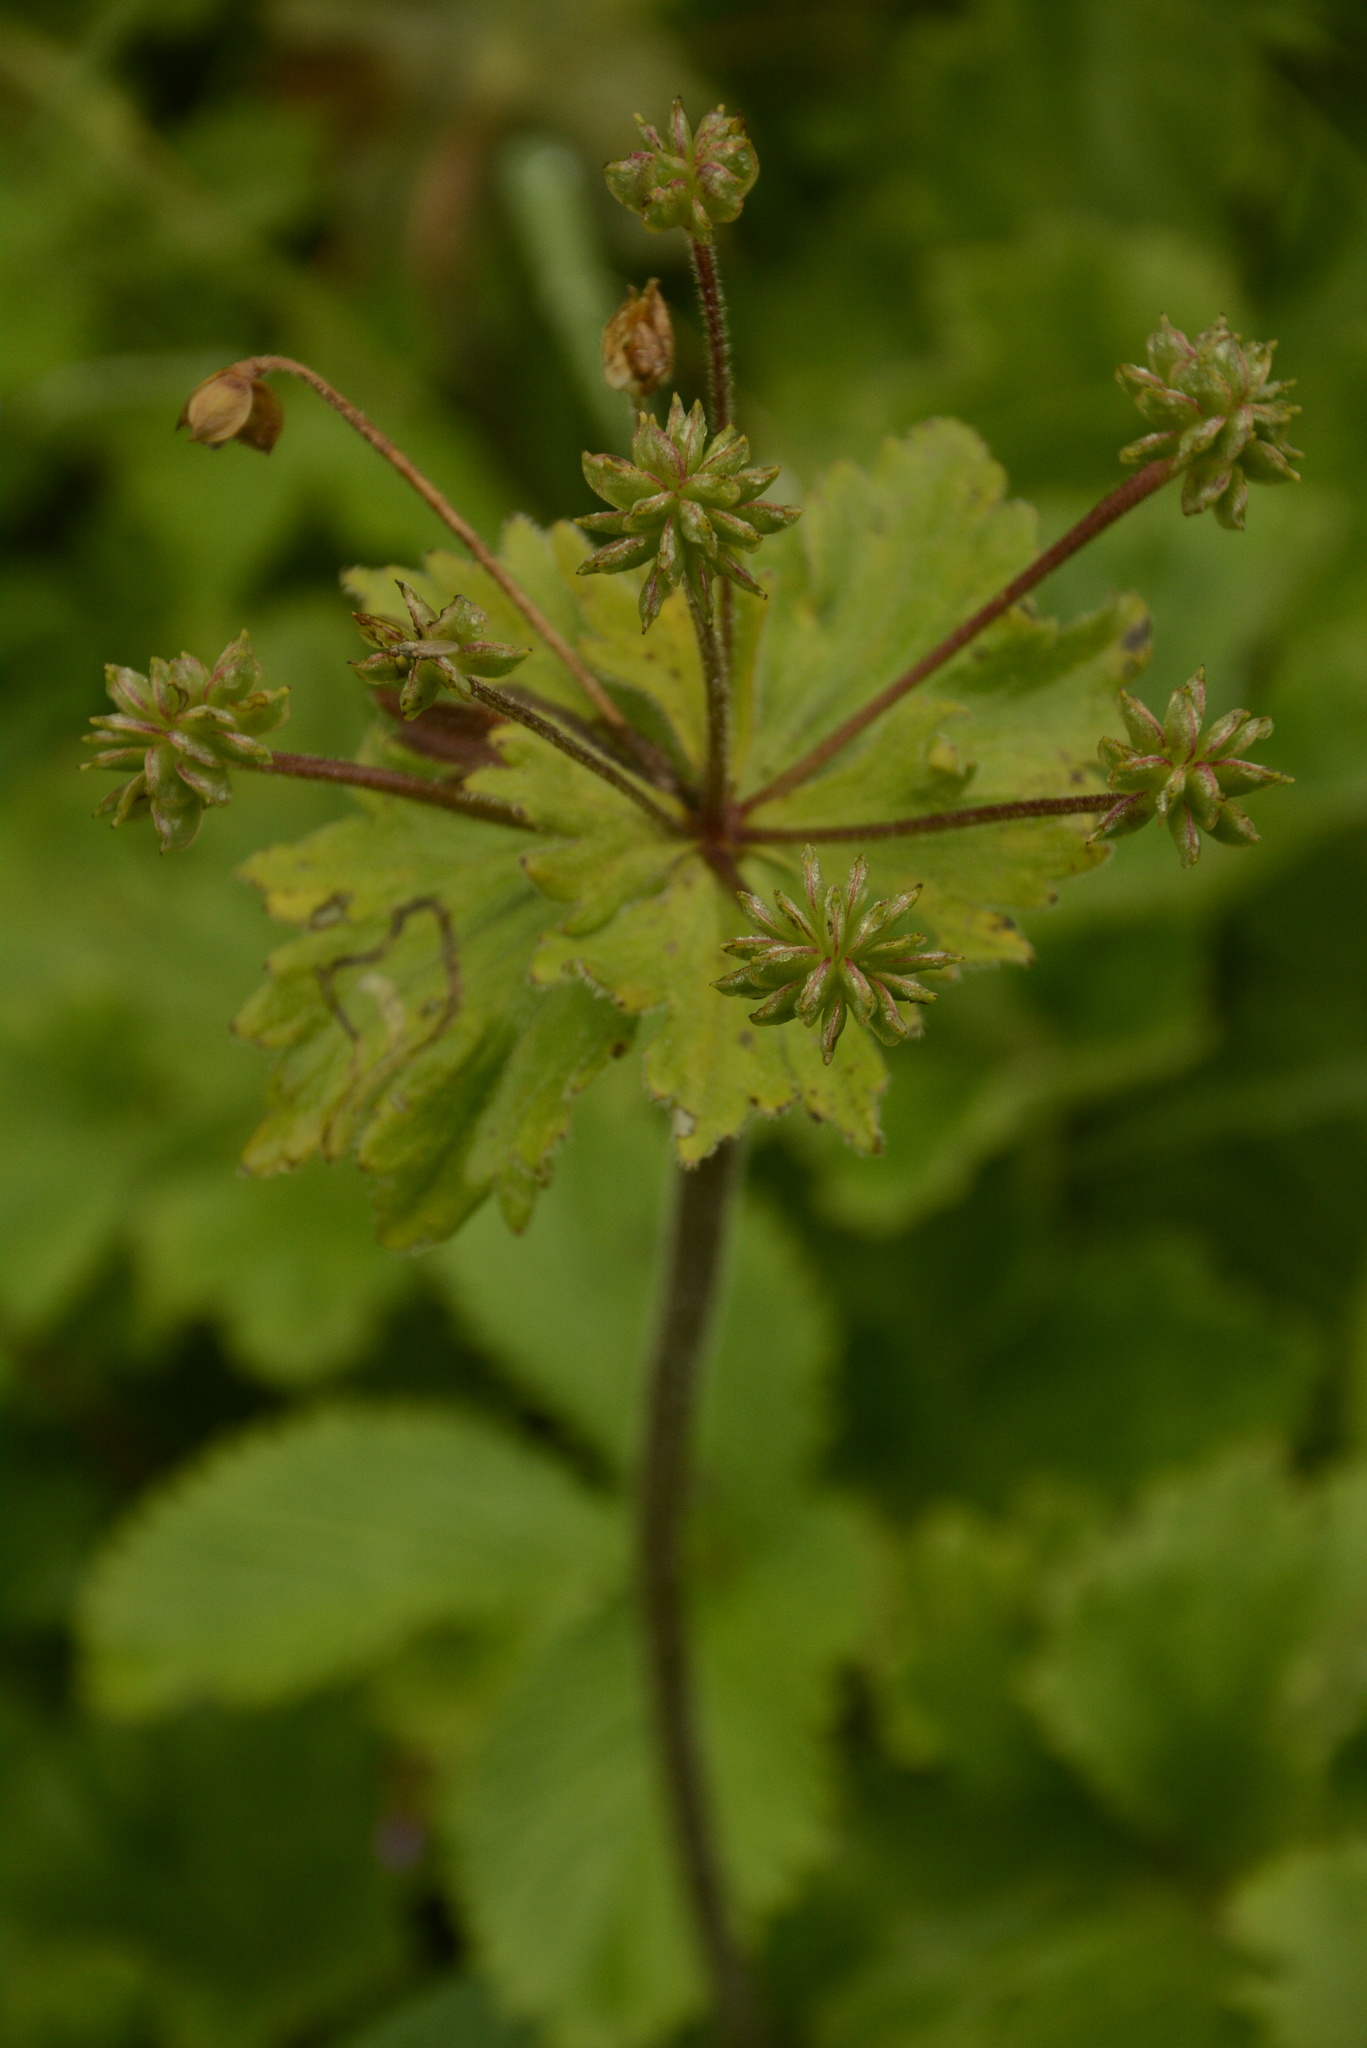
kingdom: Plantae
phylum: Tracheophyta
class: Magnoliopsida
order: Ranunculales
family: Ranunculaceae
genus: Anemonastrum
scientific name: Anemonastrum tetrasepalum
